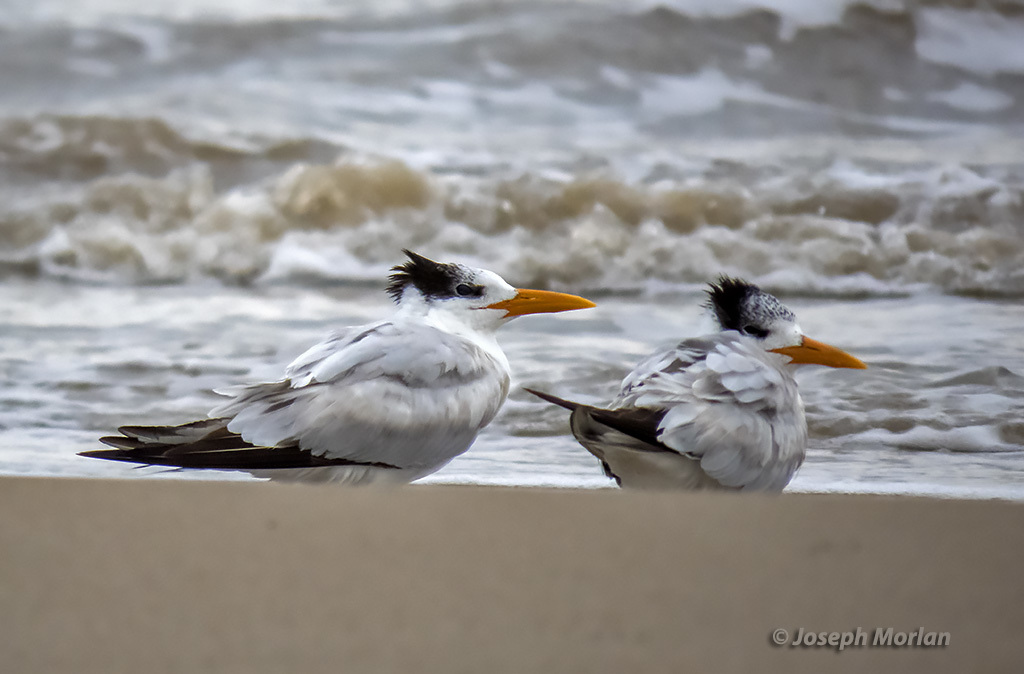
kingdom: Animalia
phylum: Chordata
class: Aves
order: Charadriiformes
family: Laridae
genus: Thalasseus
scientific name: Thalasseus maximus
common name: Royal tern
